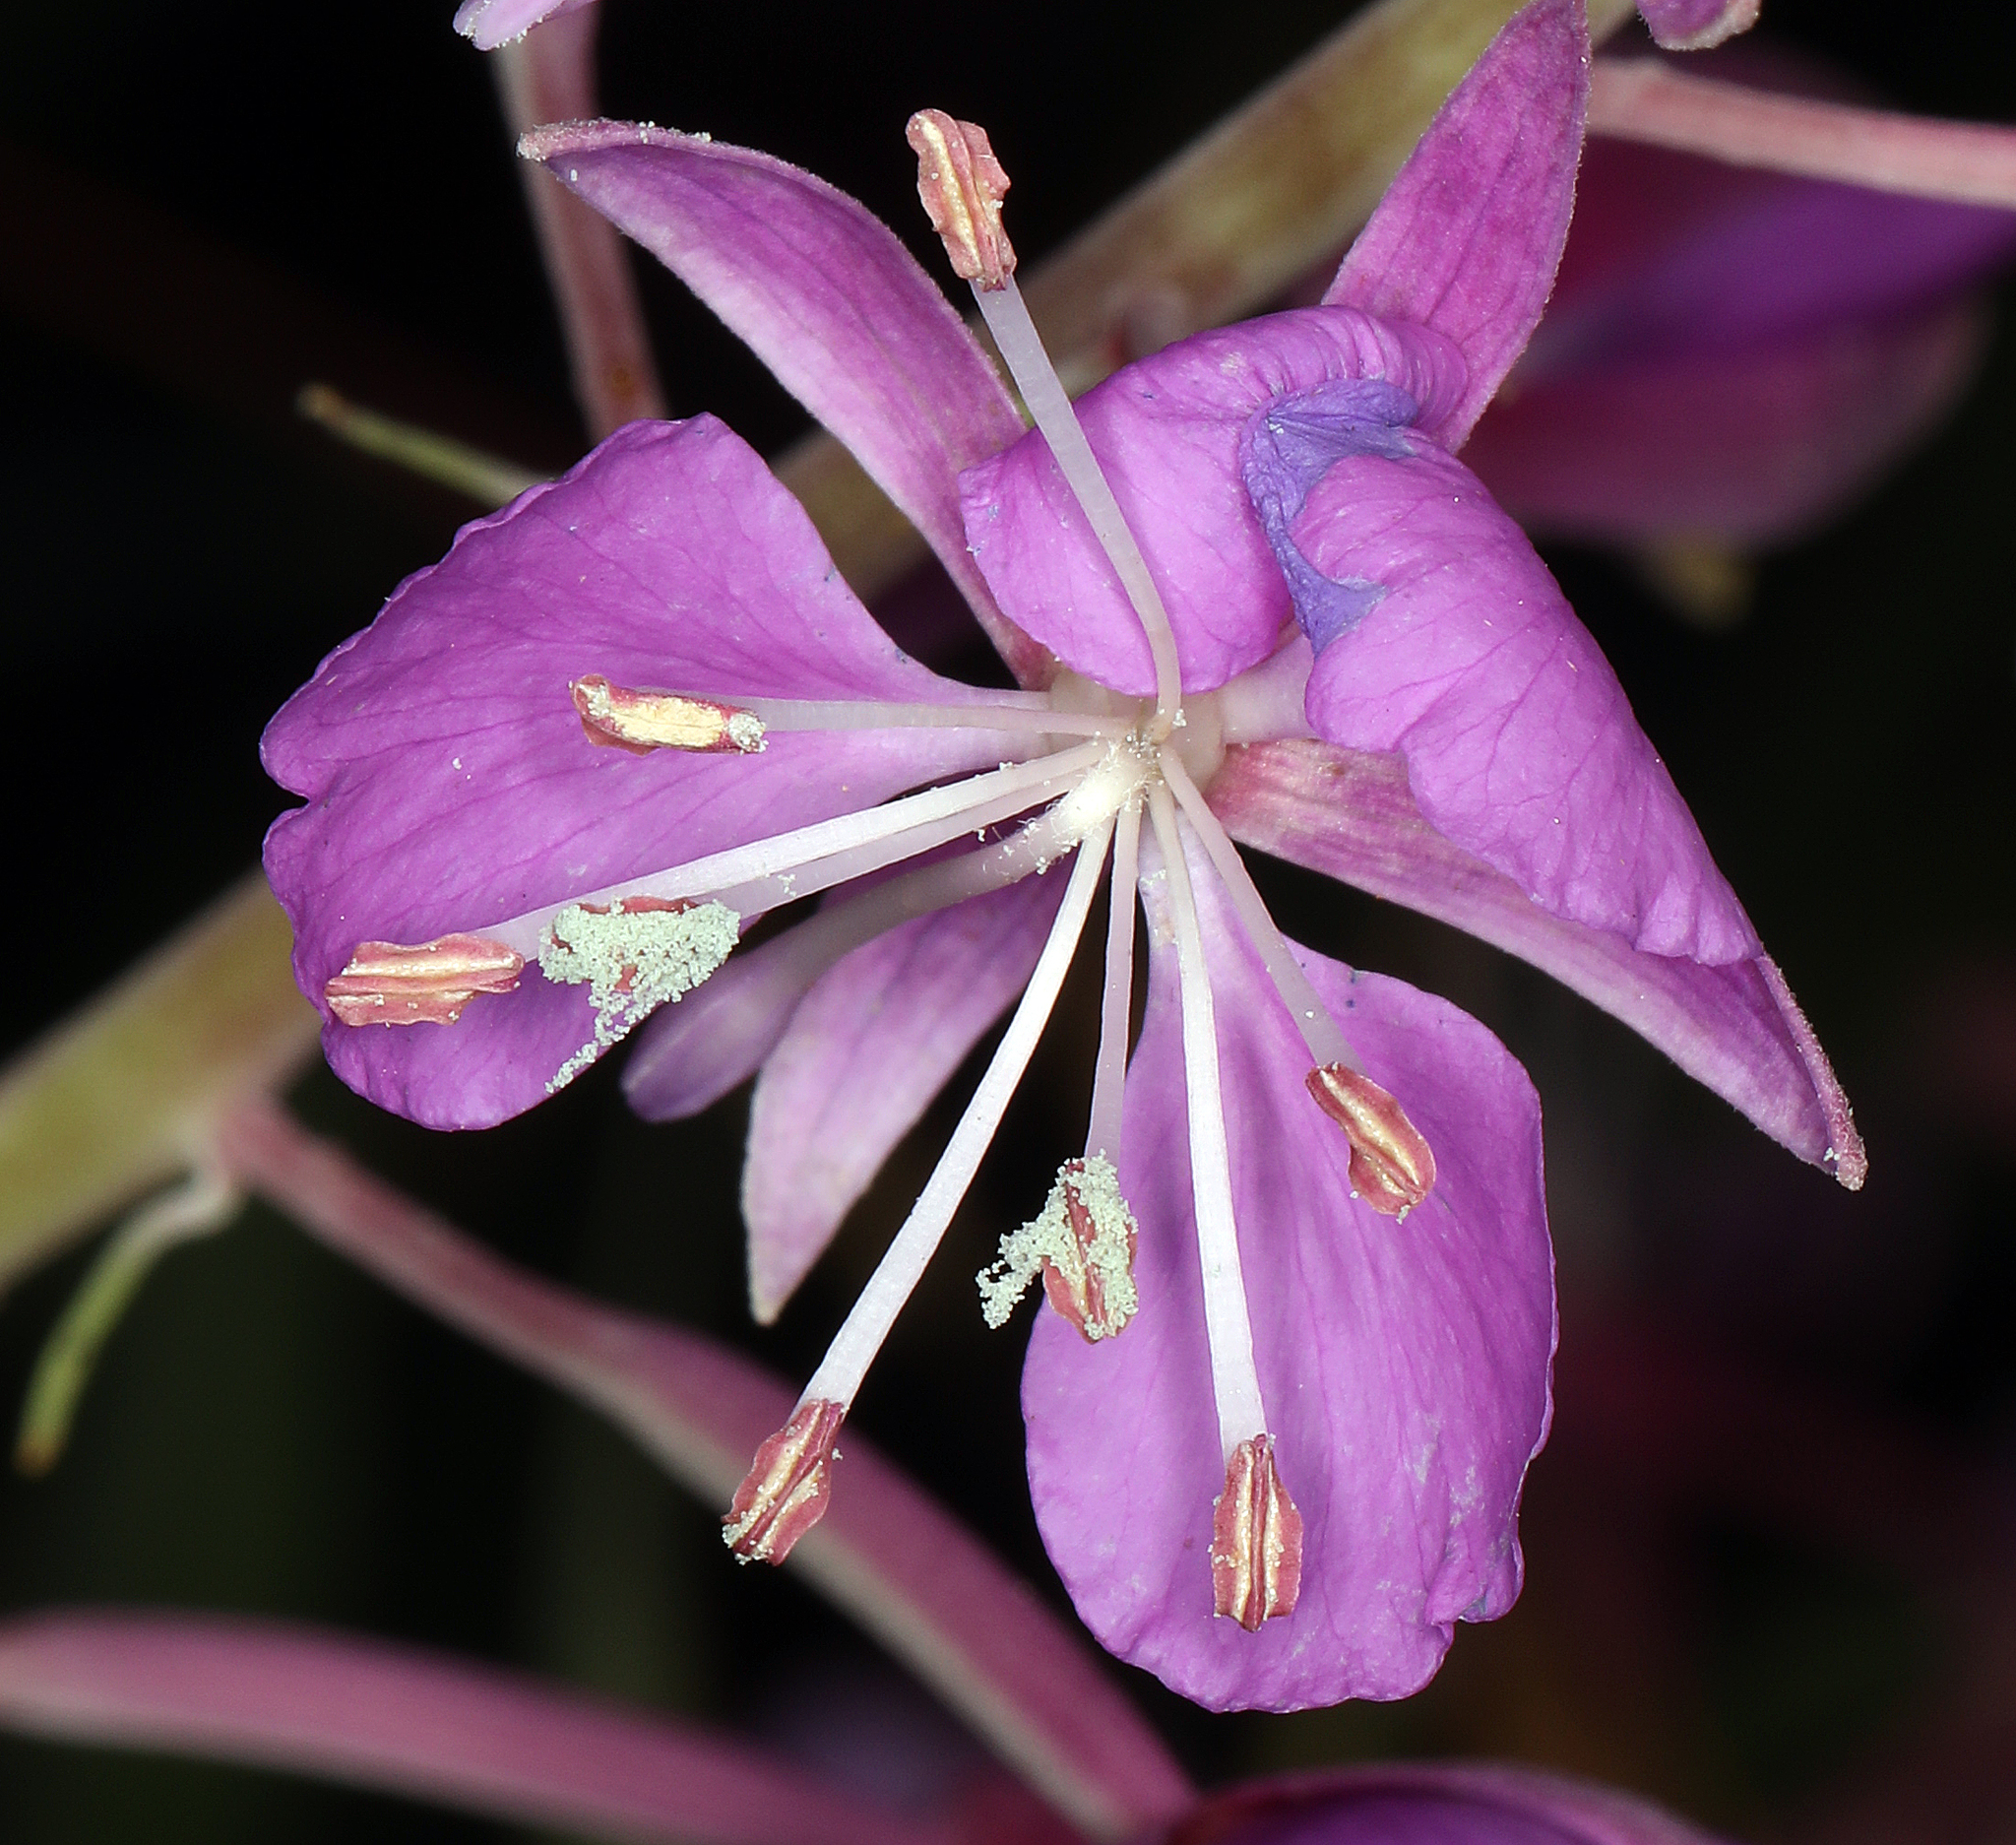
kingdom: Plantae
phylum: Tracheophyta
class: Magnoliopsida
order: Myrtales
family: Onagraceae
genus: Chamaenerion
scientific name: Chamaenerion angustifolium
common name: Fireweed
